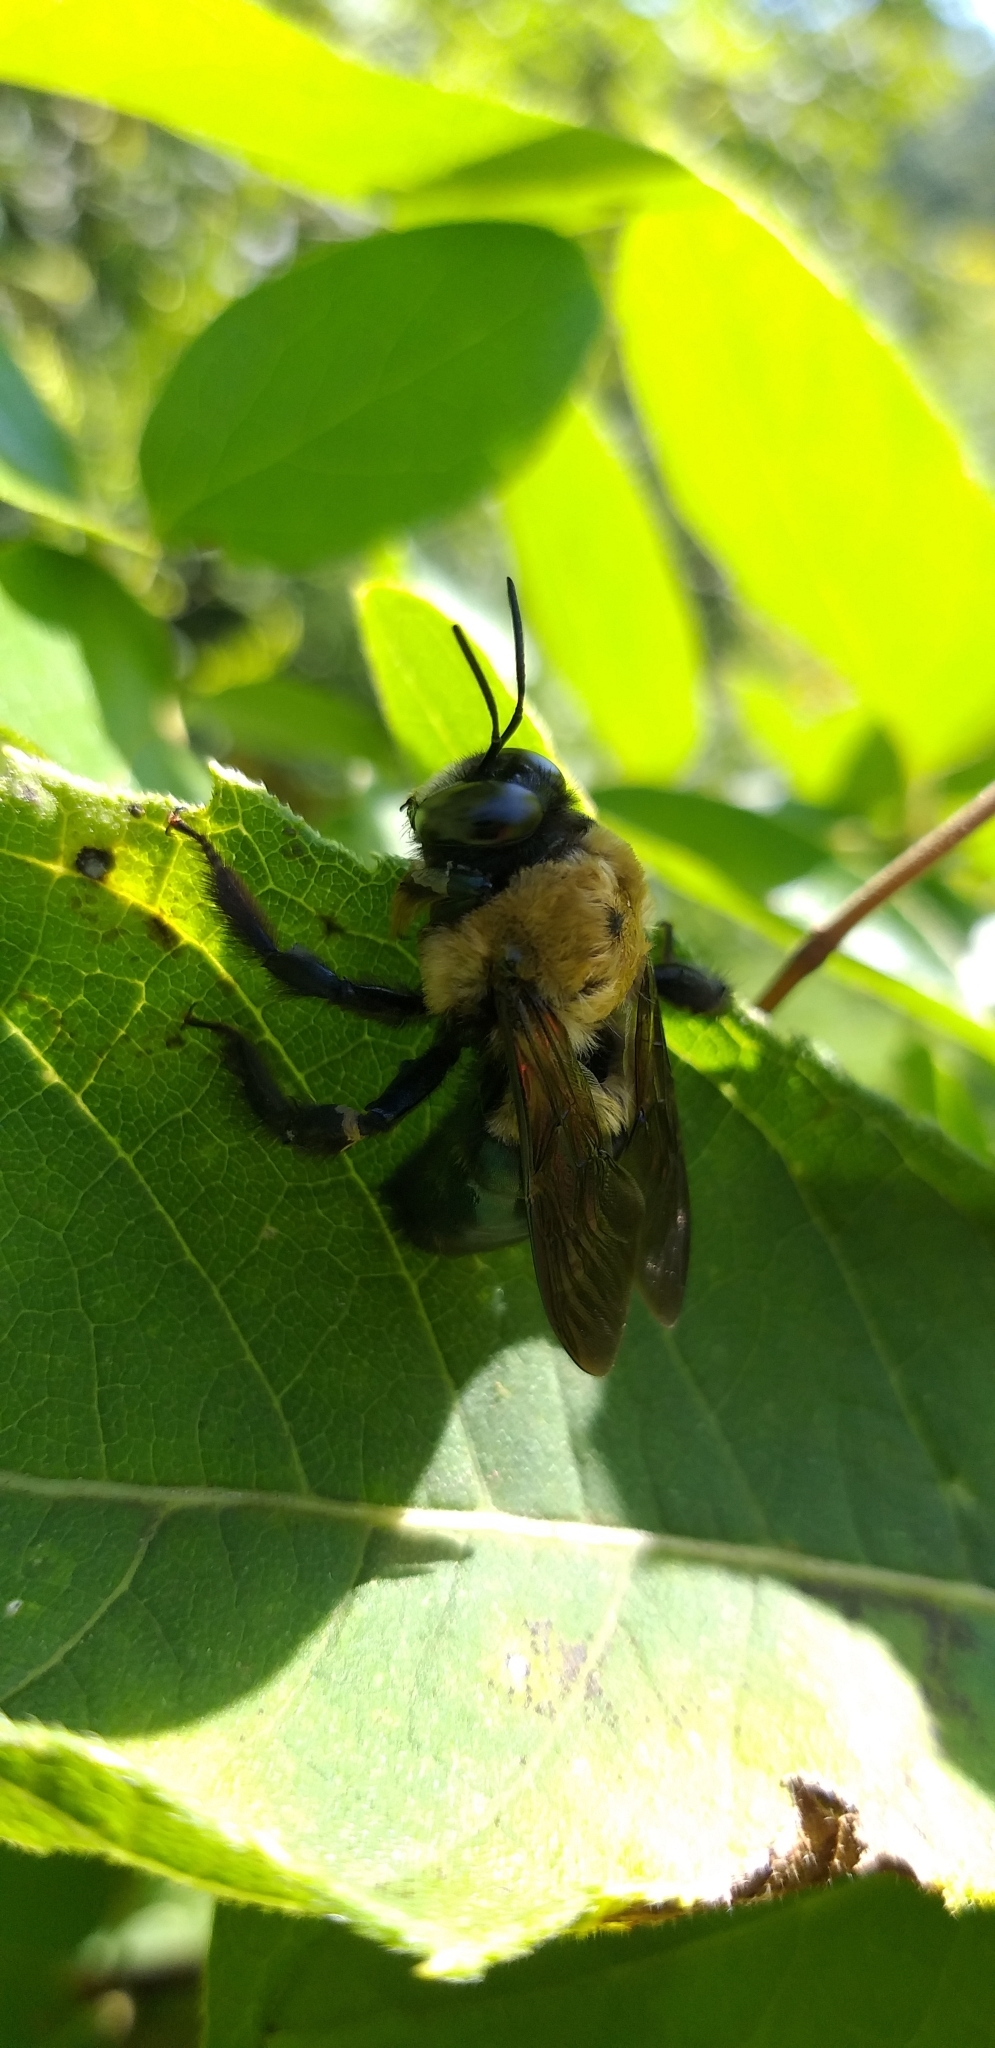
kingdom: Animalia
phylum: Arthropoda
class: Insecta
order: Hymenoptera
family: Apidae
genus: Xylocopa
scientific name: Xylocopa virginica
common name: Carpenter bee
